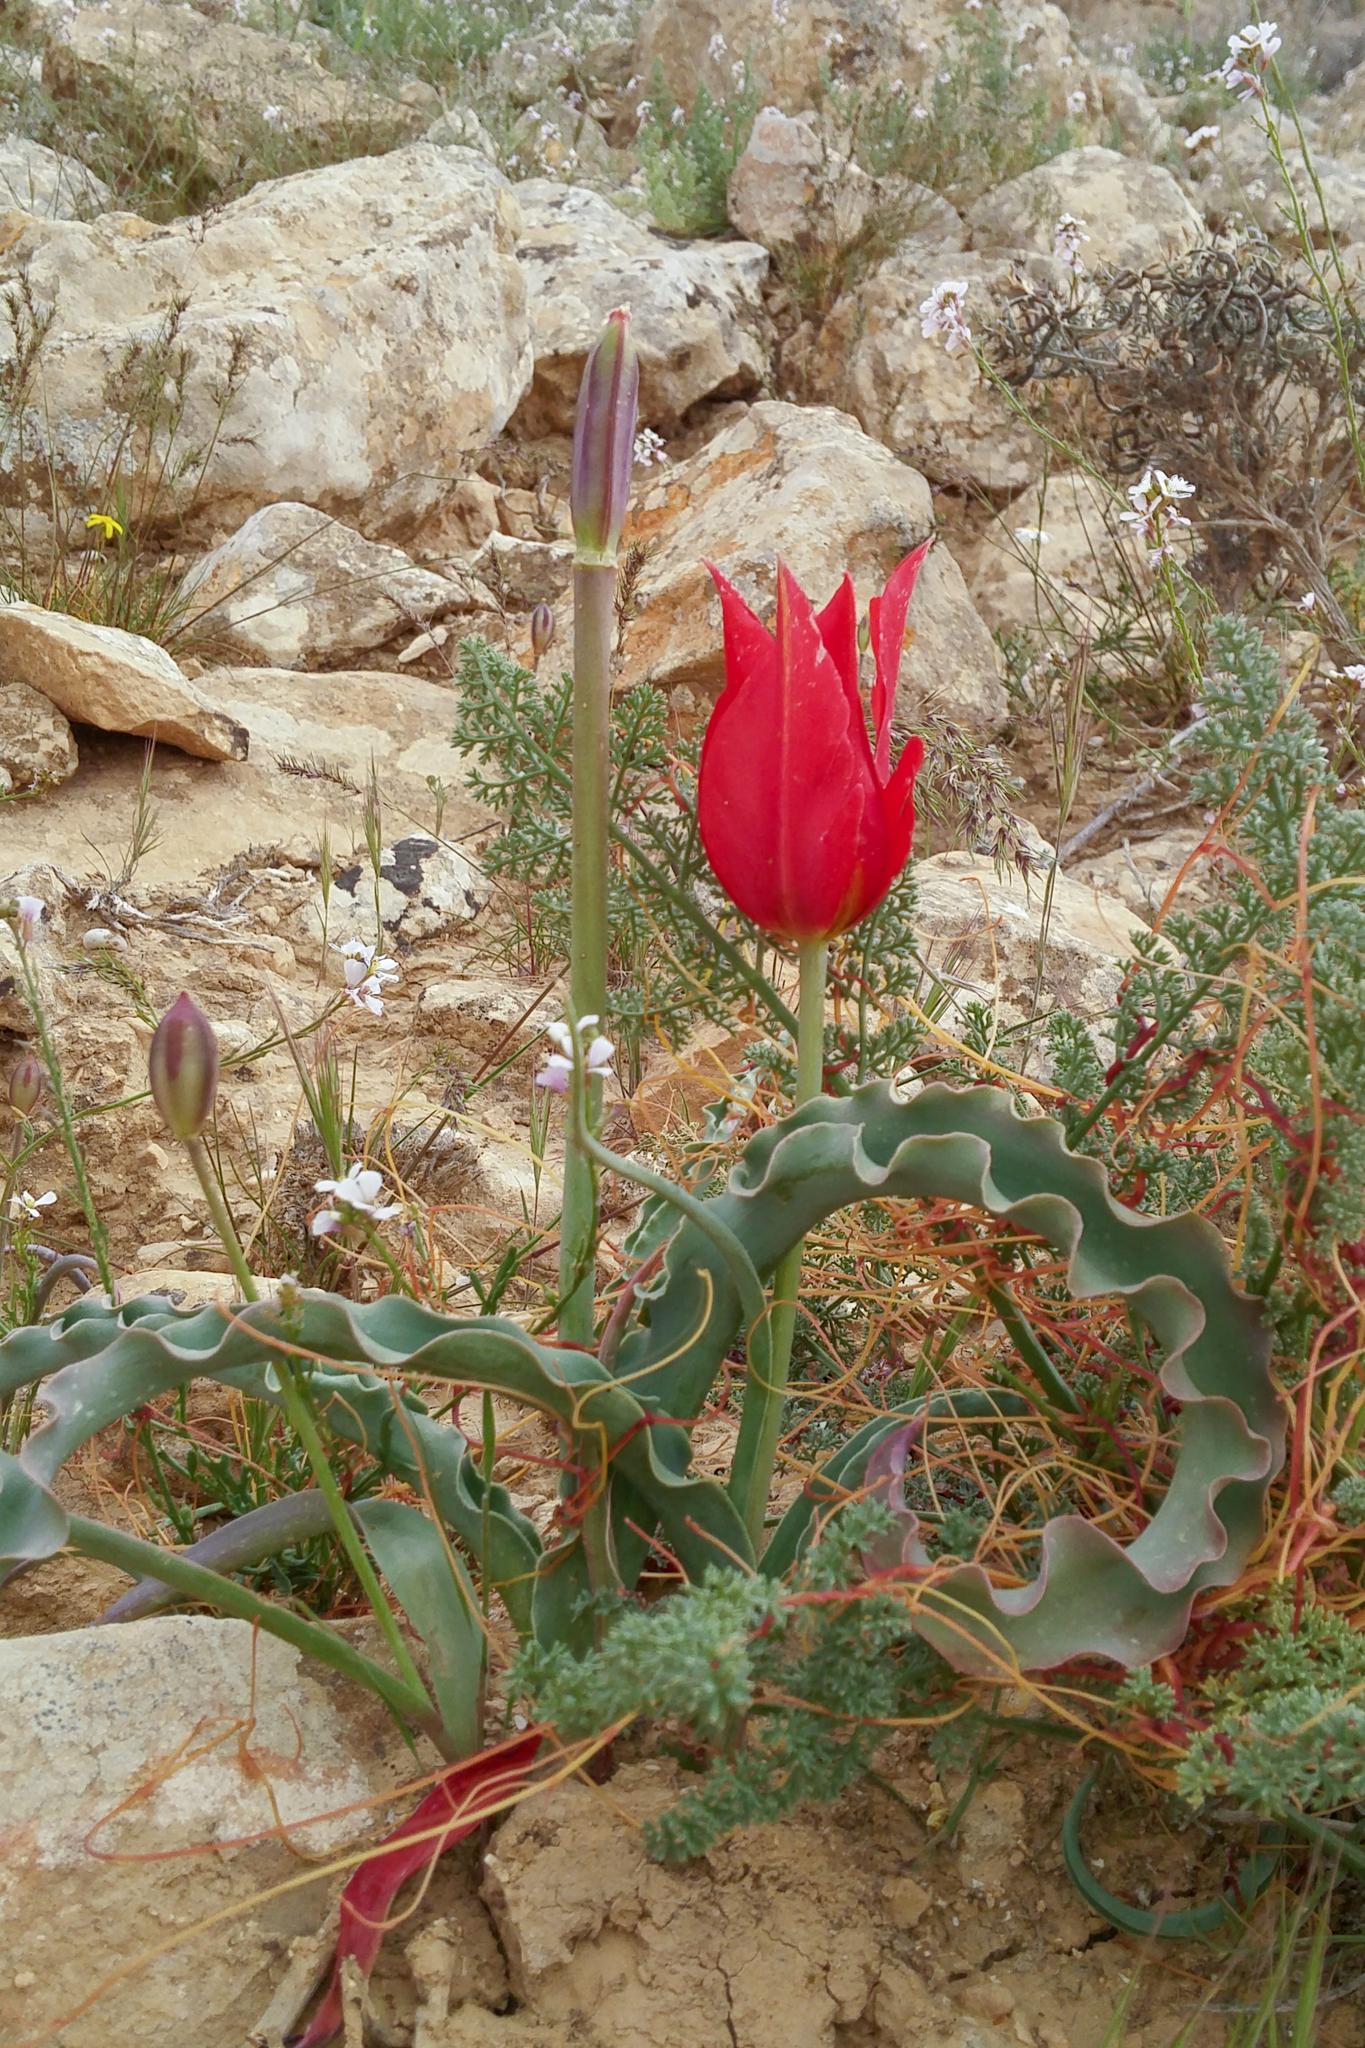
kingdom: Plantae
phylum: Tracheophyta
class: Liliopsida
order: Liliales
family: Liliaceae
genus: Tulipa
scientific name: Tulipa systola
